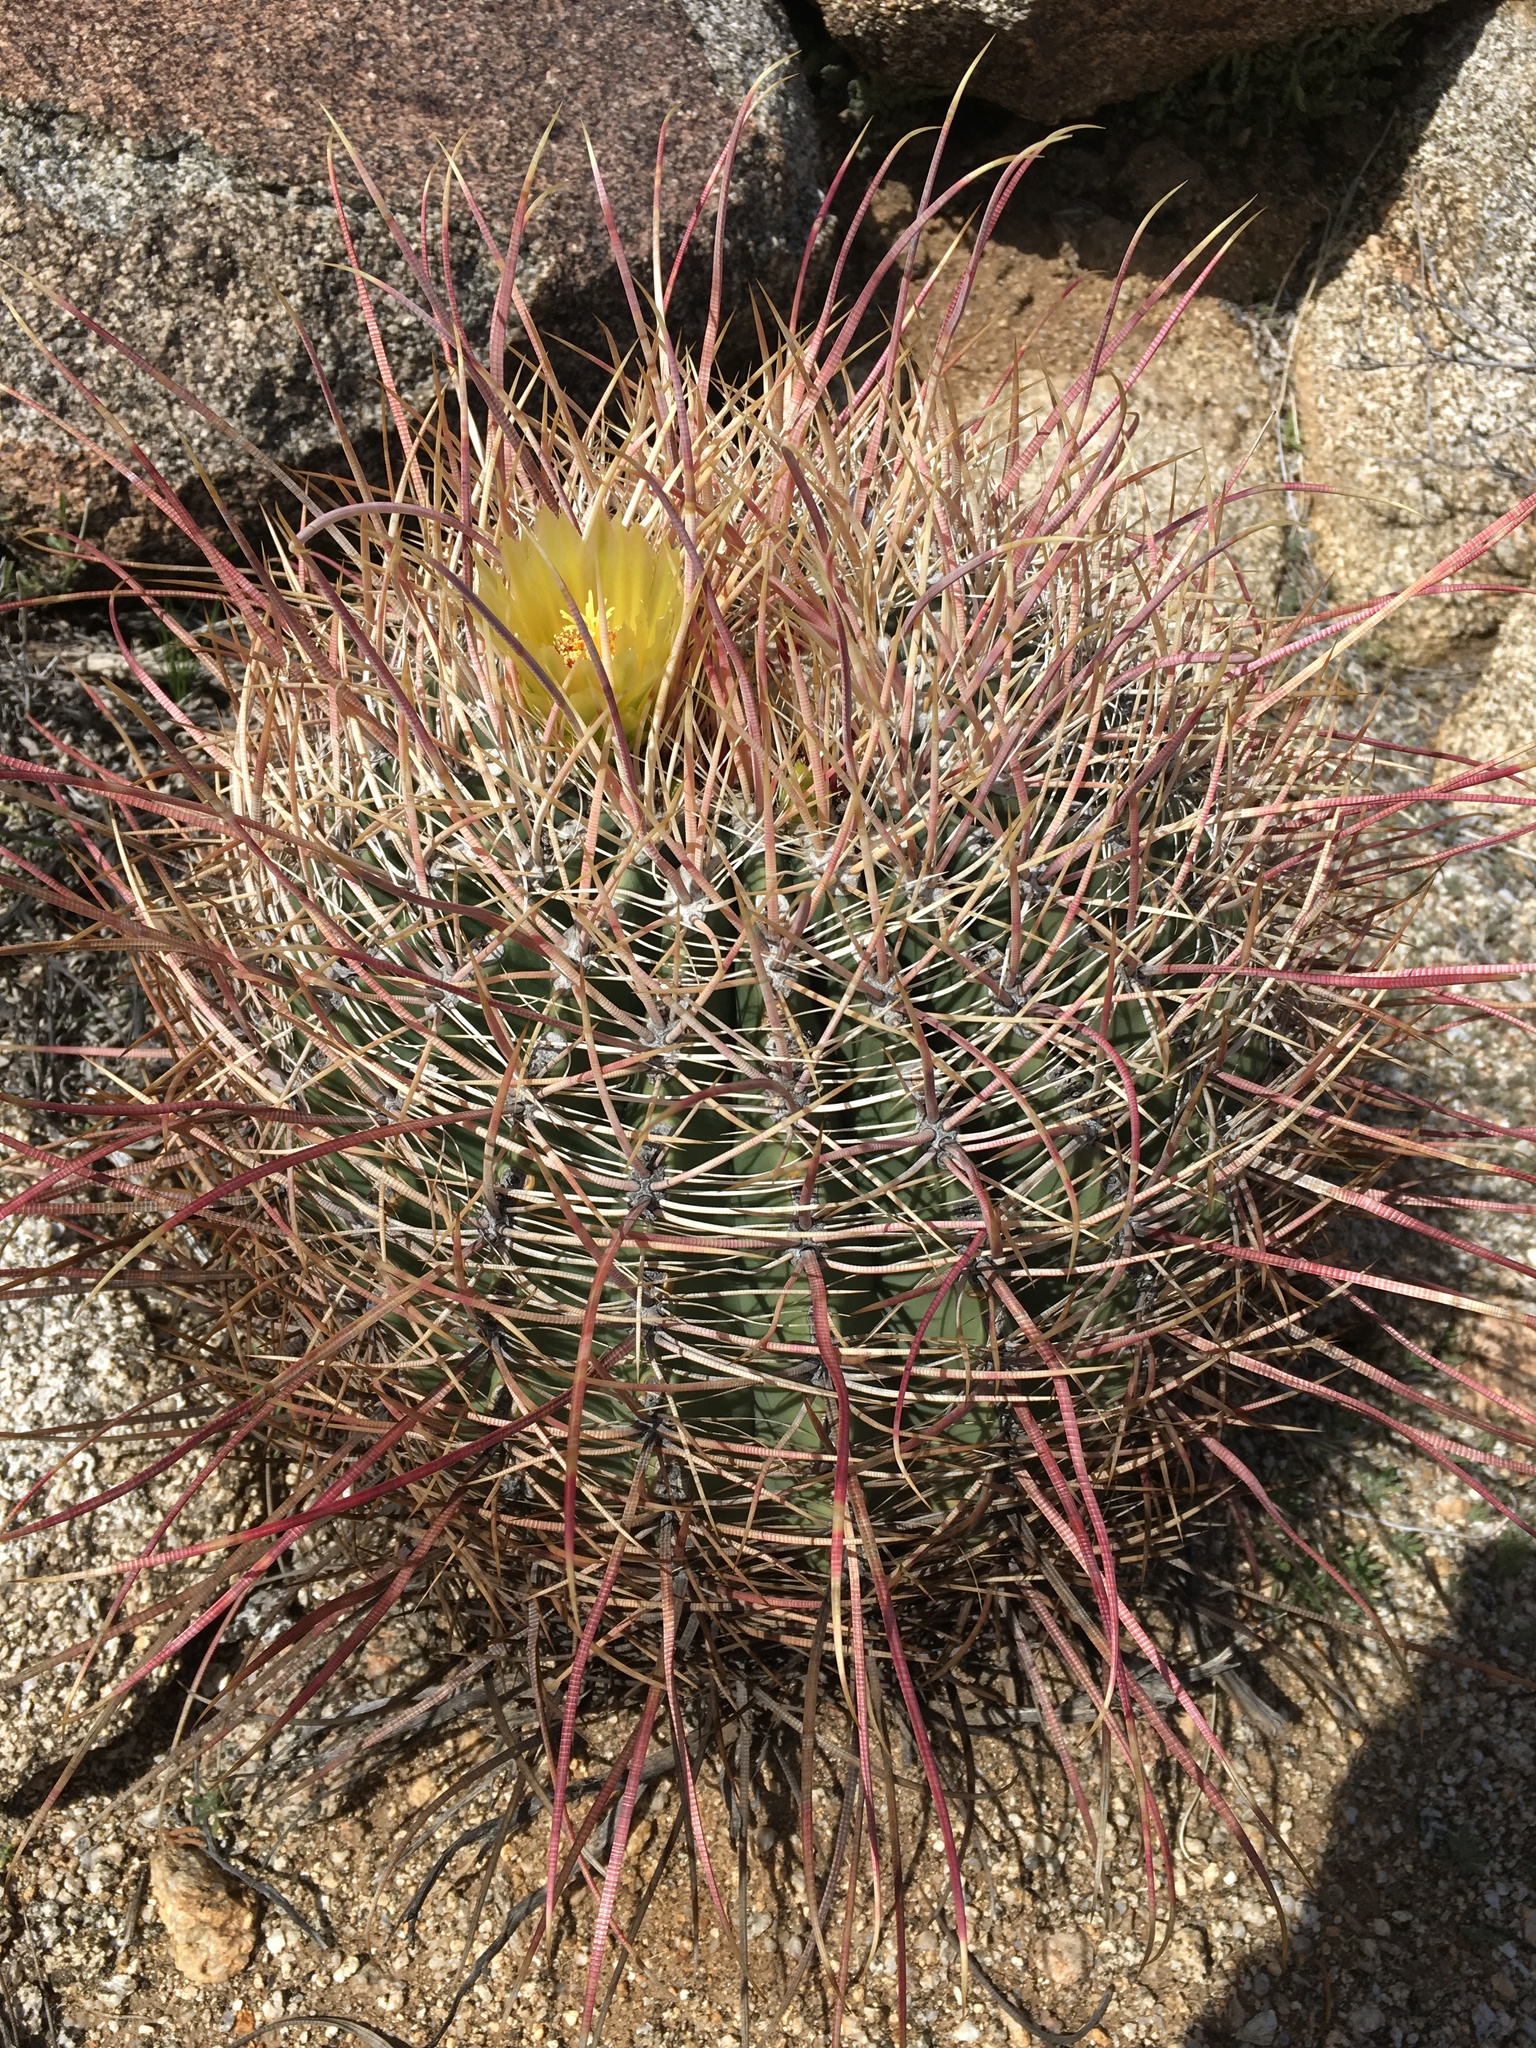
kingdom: Plantae
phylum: Tracheophyta
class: Magnoliopsida
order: Caryophyllales
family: Cactaceae
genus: Ferocactus
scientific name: Ferocactus cylindraceus
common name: California barrel cactus
